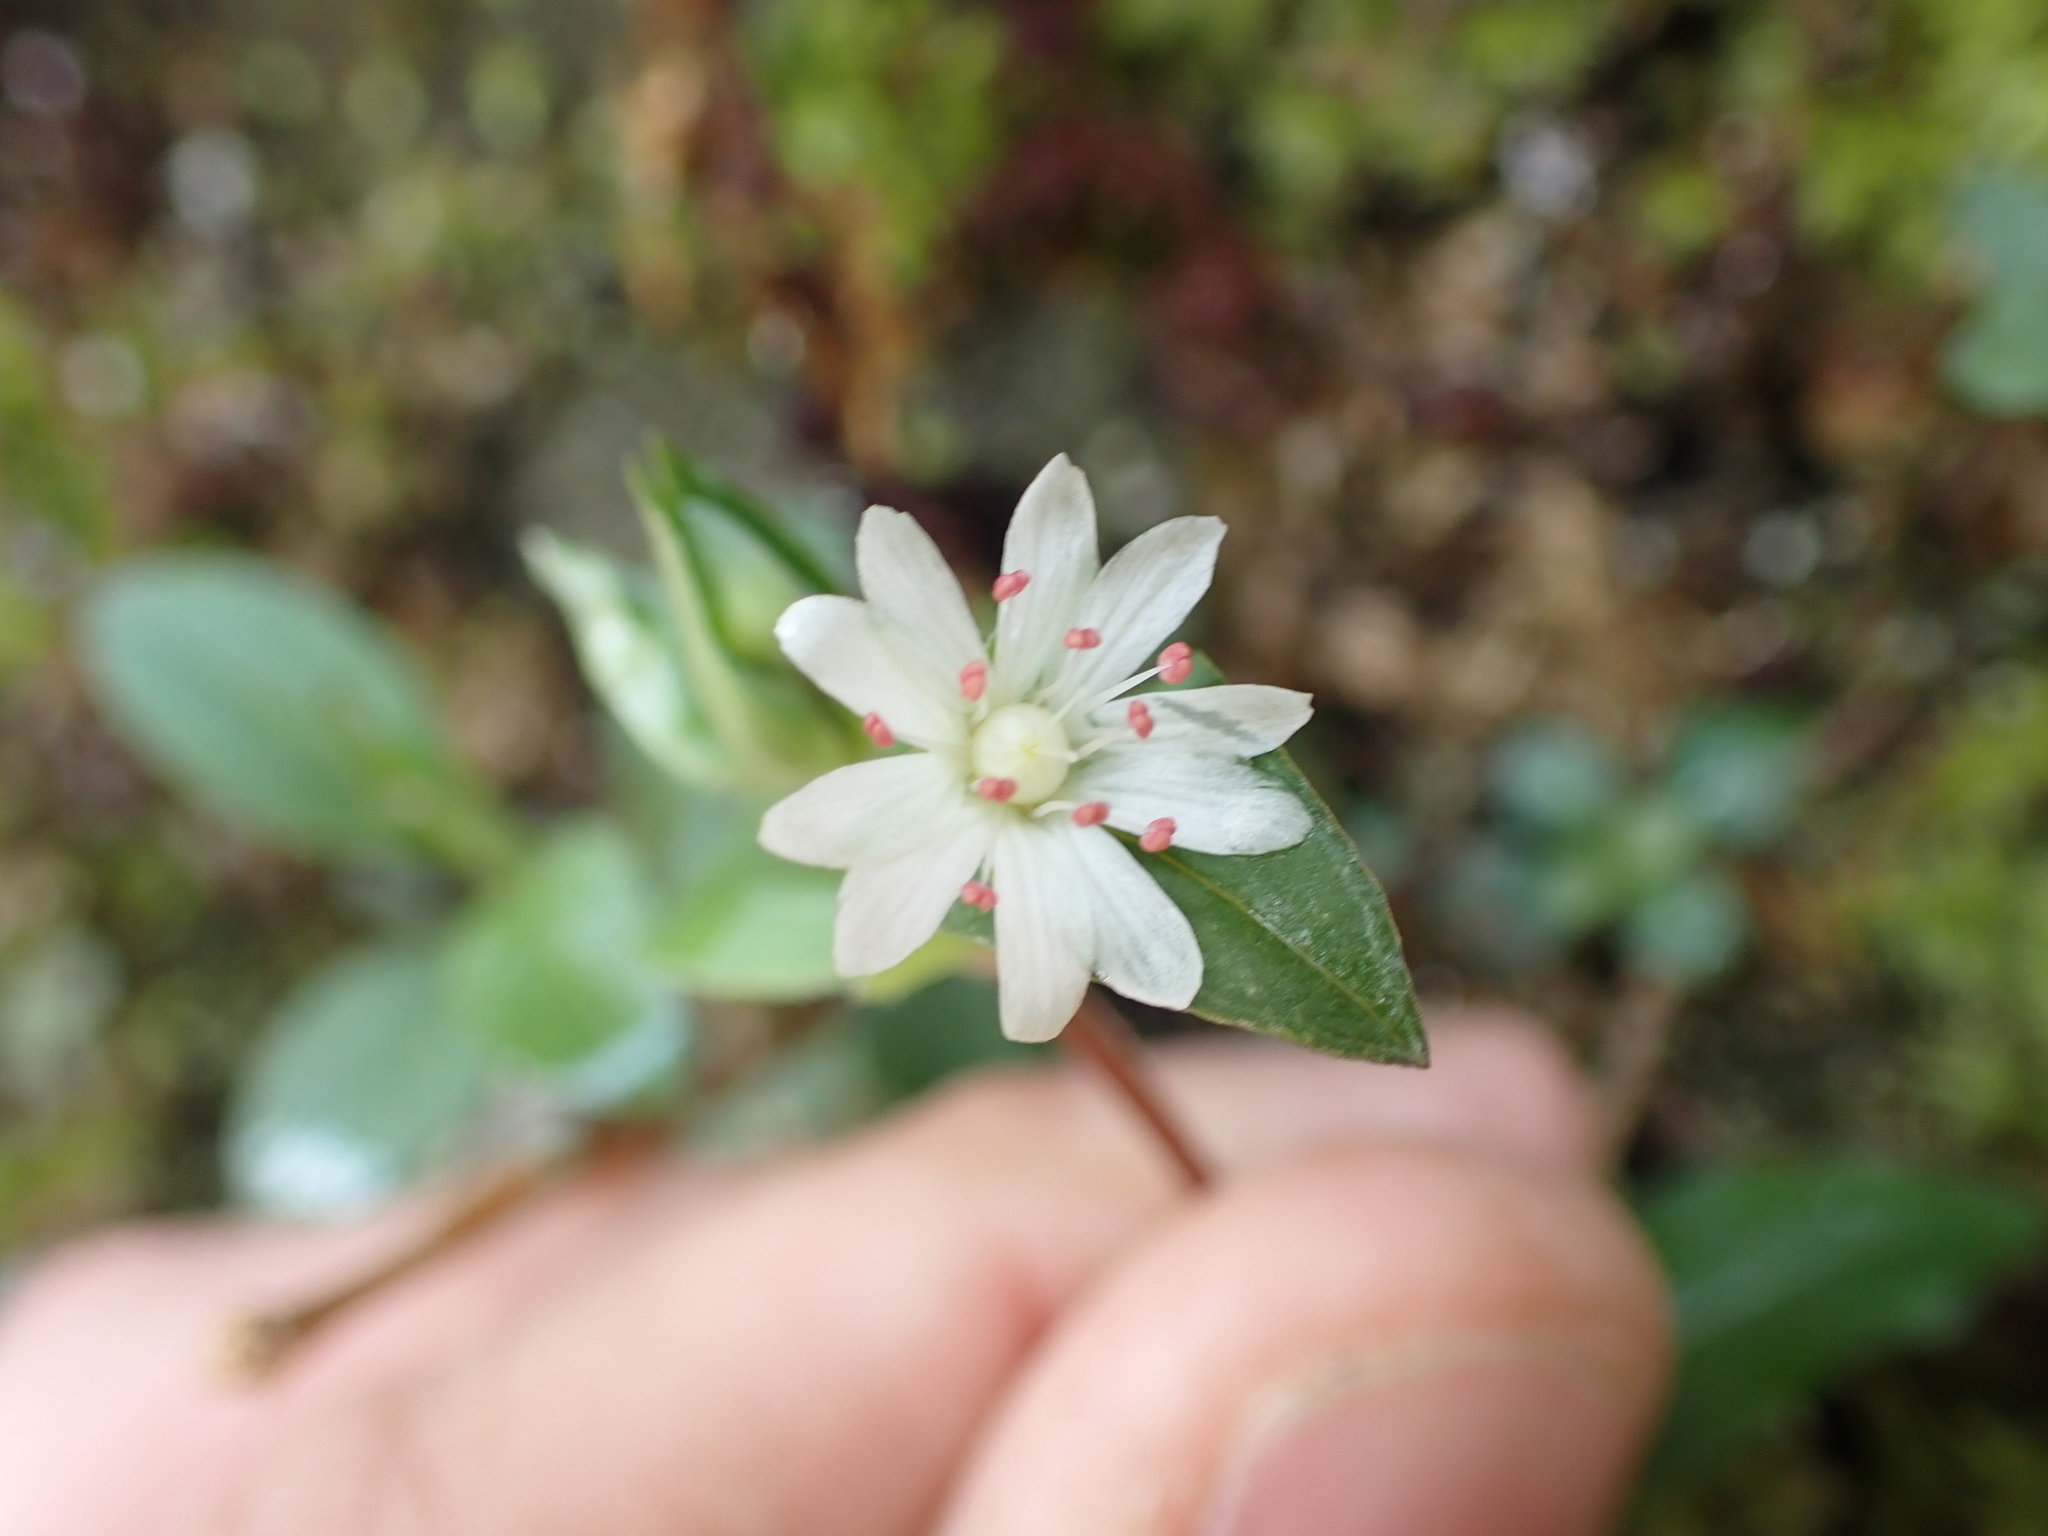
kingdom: Plantae
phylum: Tracheophyta
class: Magnoliopsida
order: Caryophyllales
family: Caryophyllaceae
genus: Stellaria
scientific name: Stellaria pubera
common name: Star chickweed
